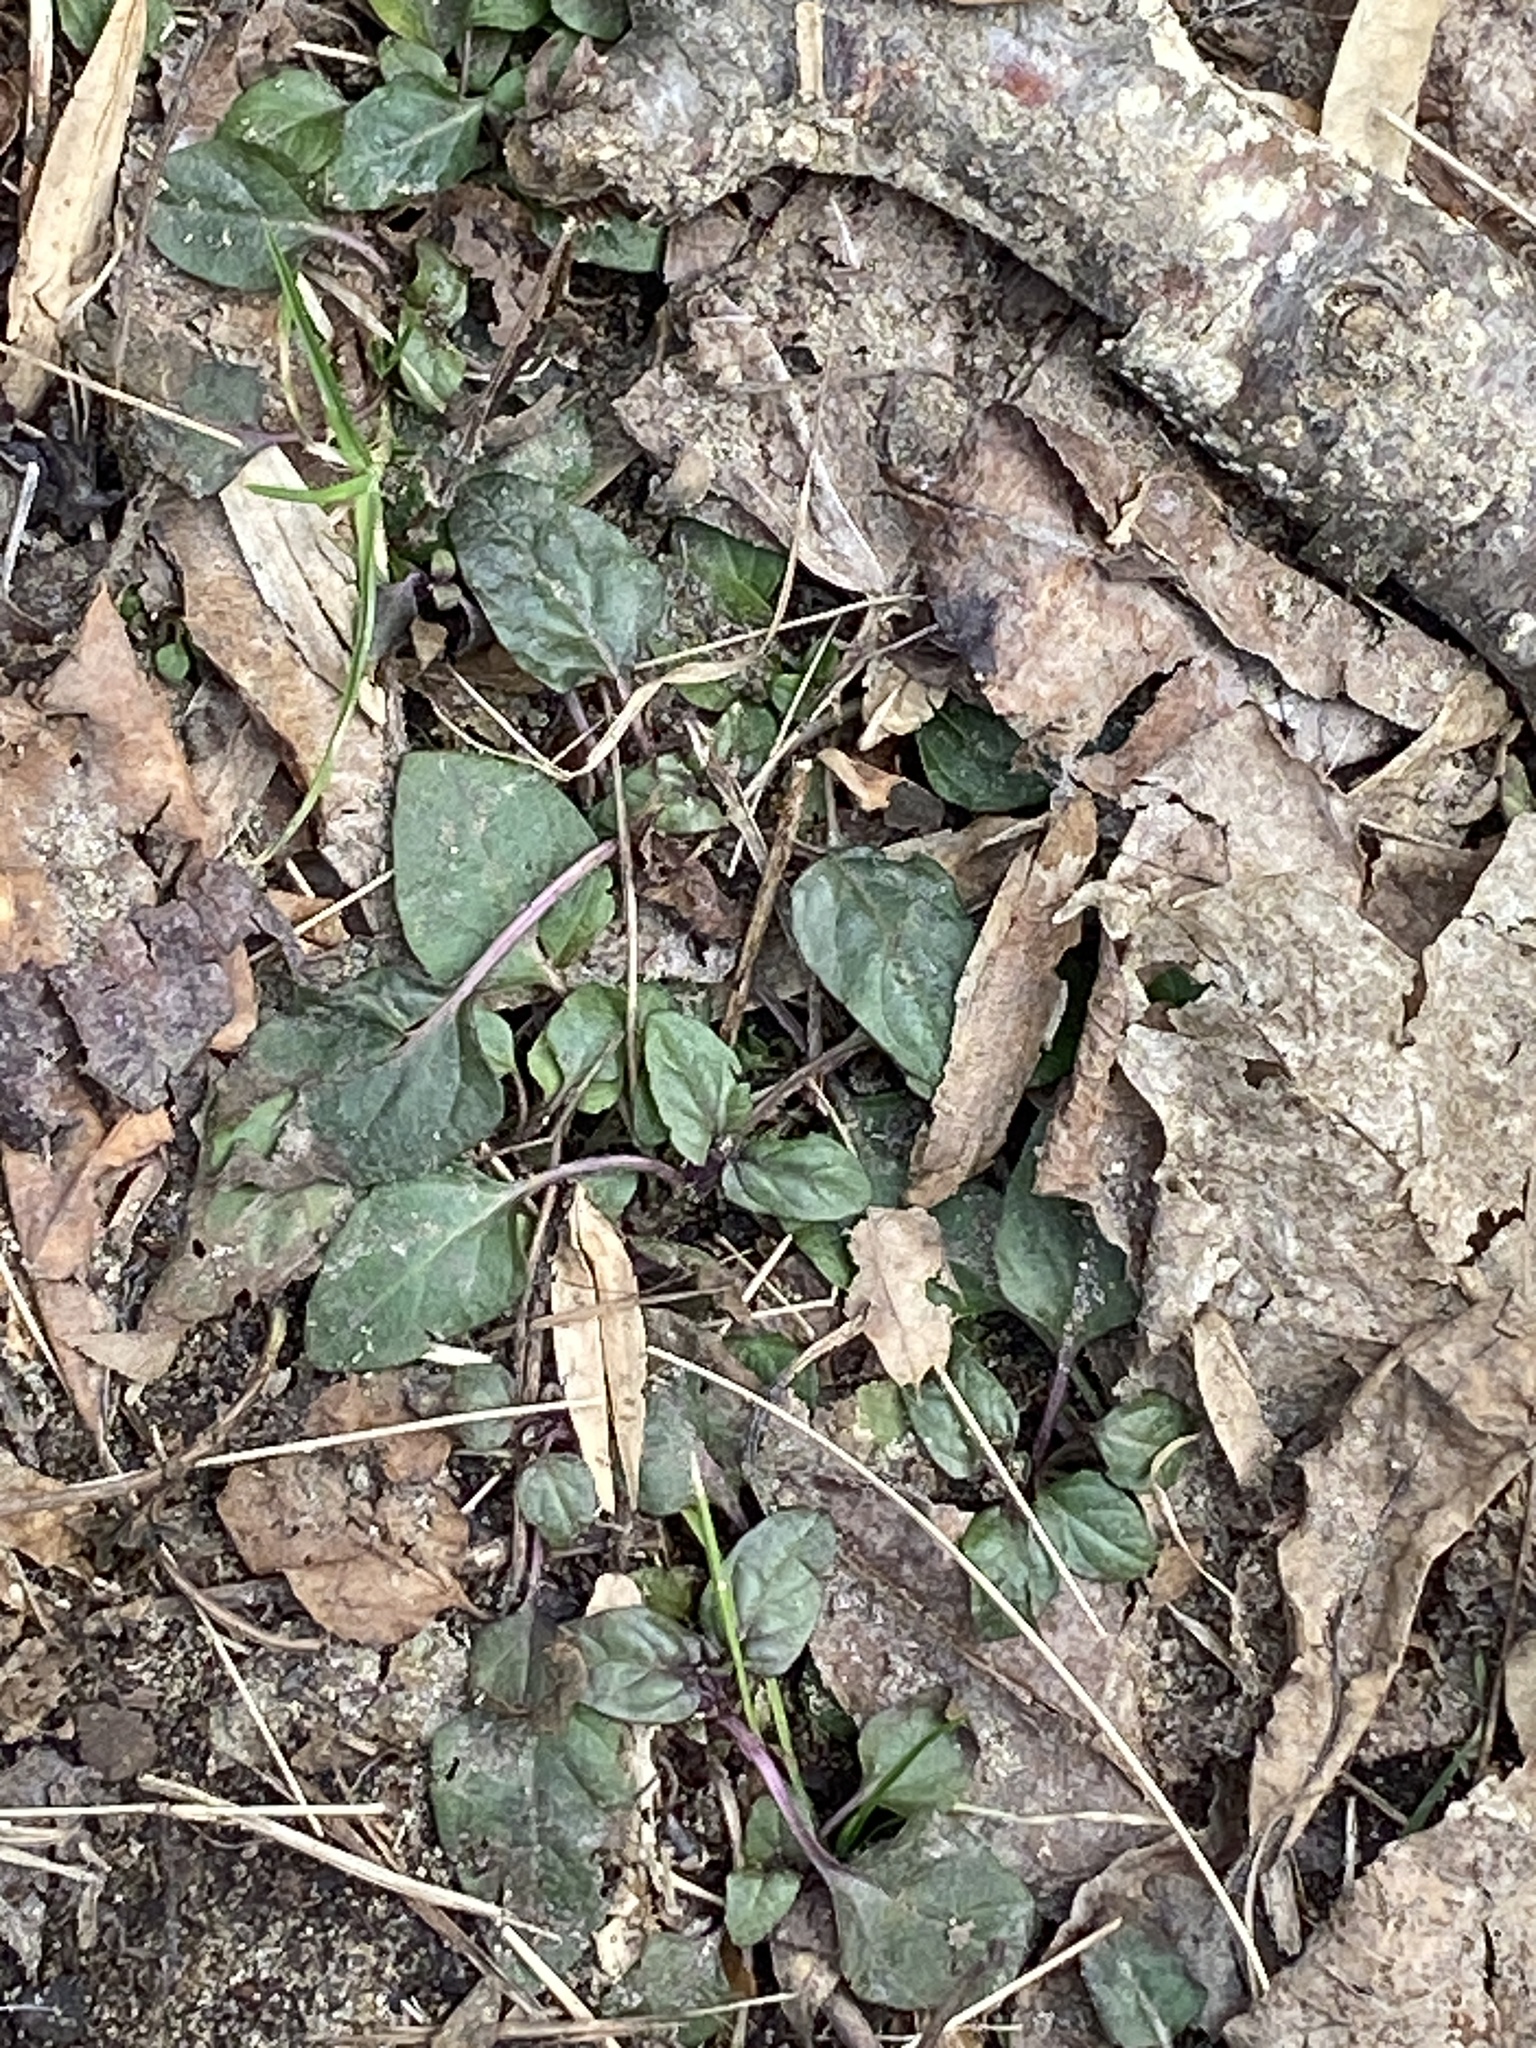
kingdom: Plantae
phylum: Tracheophyta
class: Magnoliopsida
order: Lamiales
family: Lamiaceae
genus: Prunella
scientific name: Prunella vulgaris
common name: Heal-all
